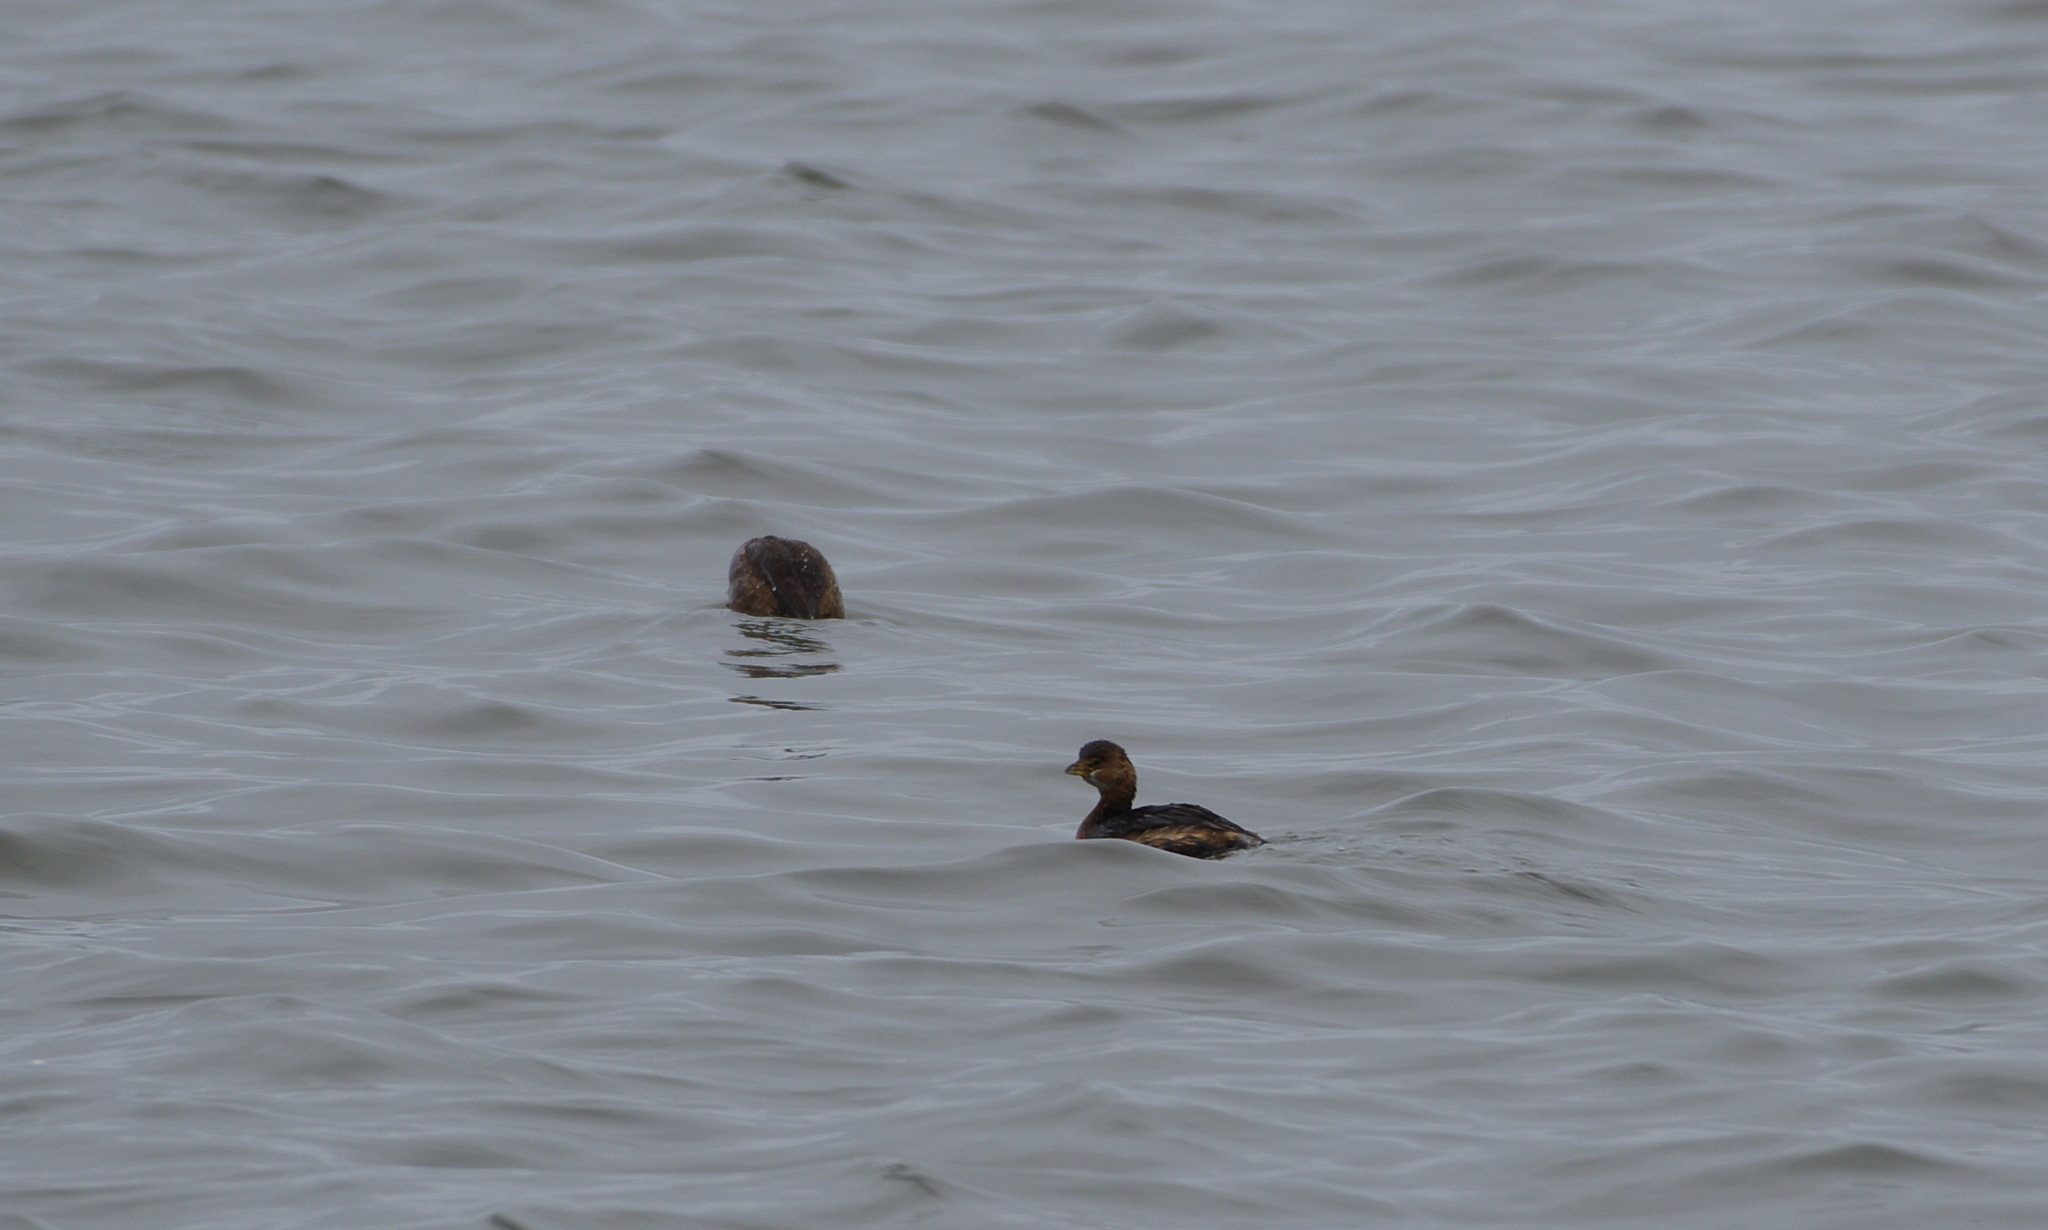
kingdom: Animalia
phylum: Chordata
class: Aves
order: Podicipediformes
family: Podicipedidae
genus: Podilymbus
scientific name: Podilymbus podiceps
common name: Pied-billed grebe
